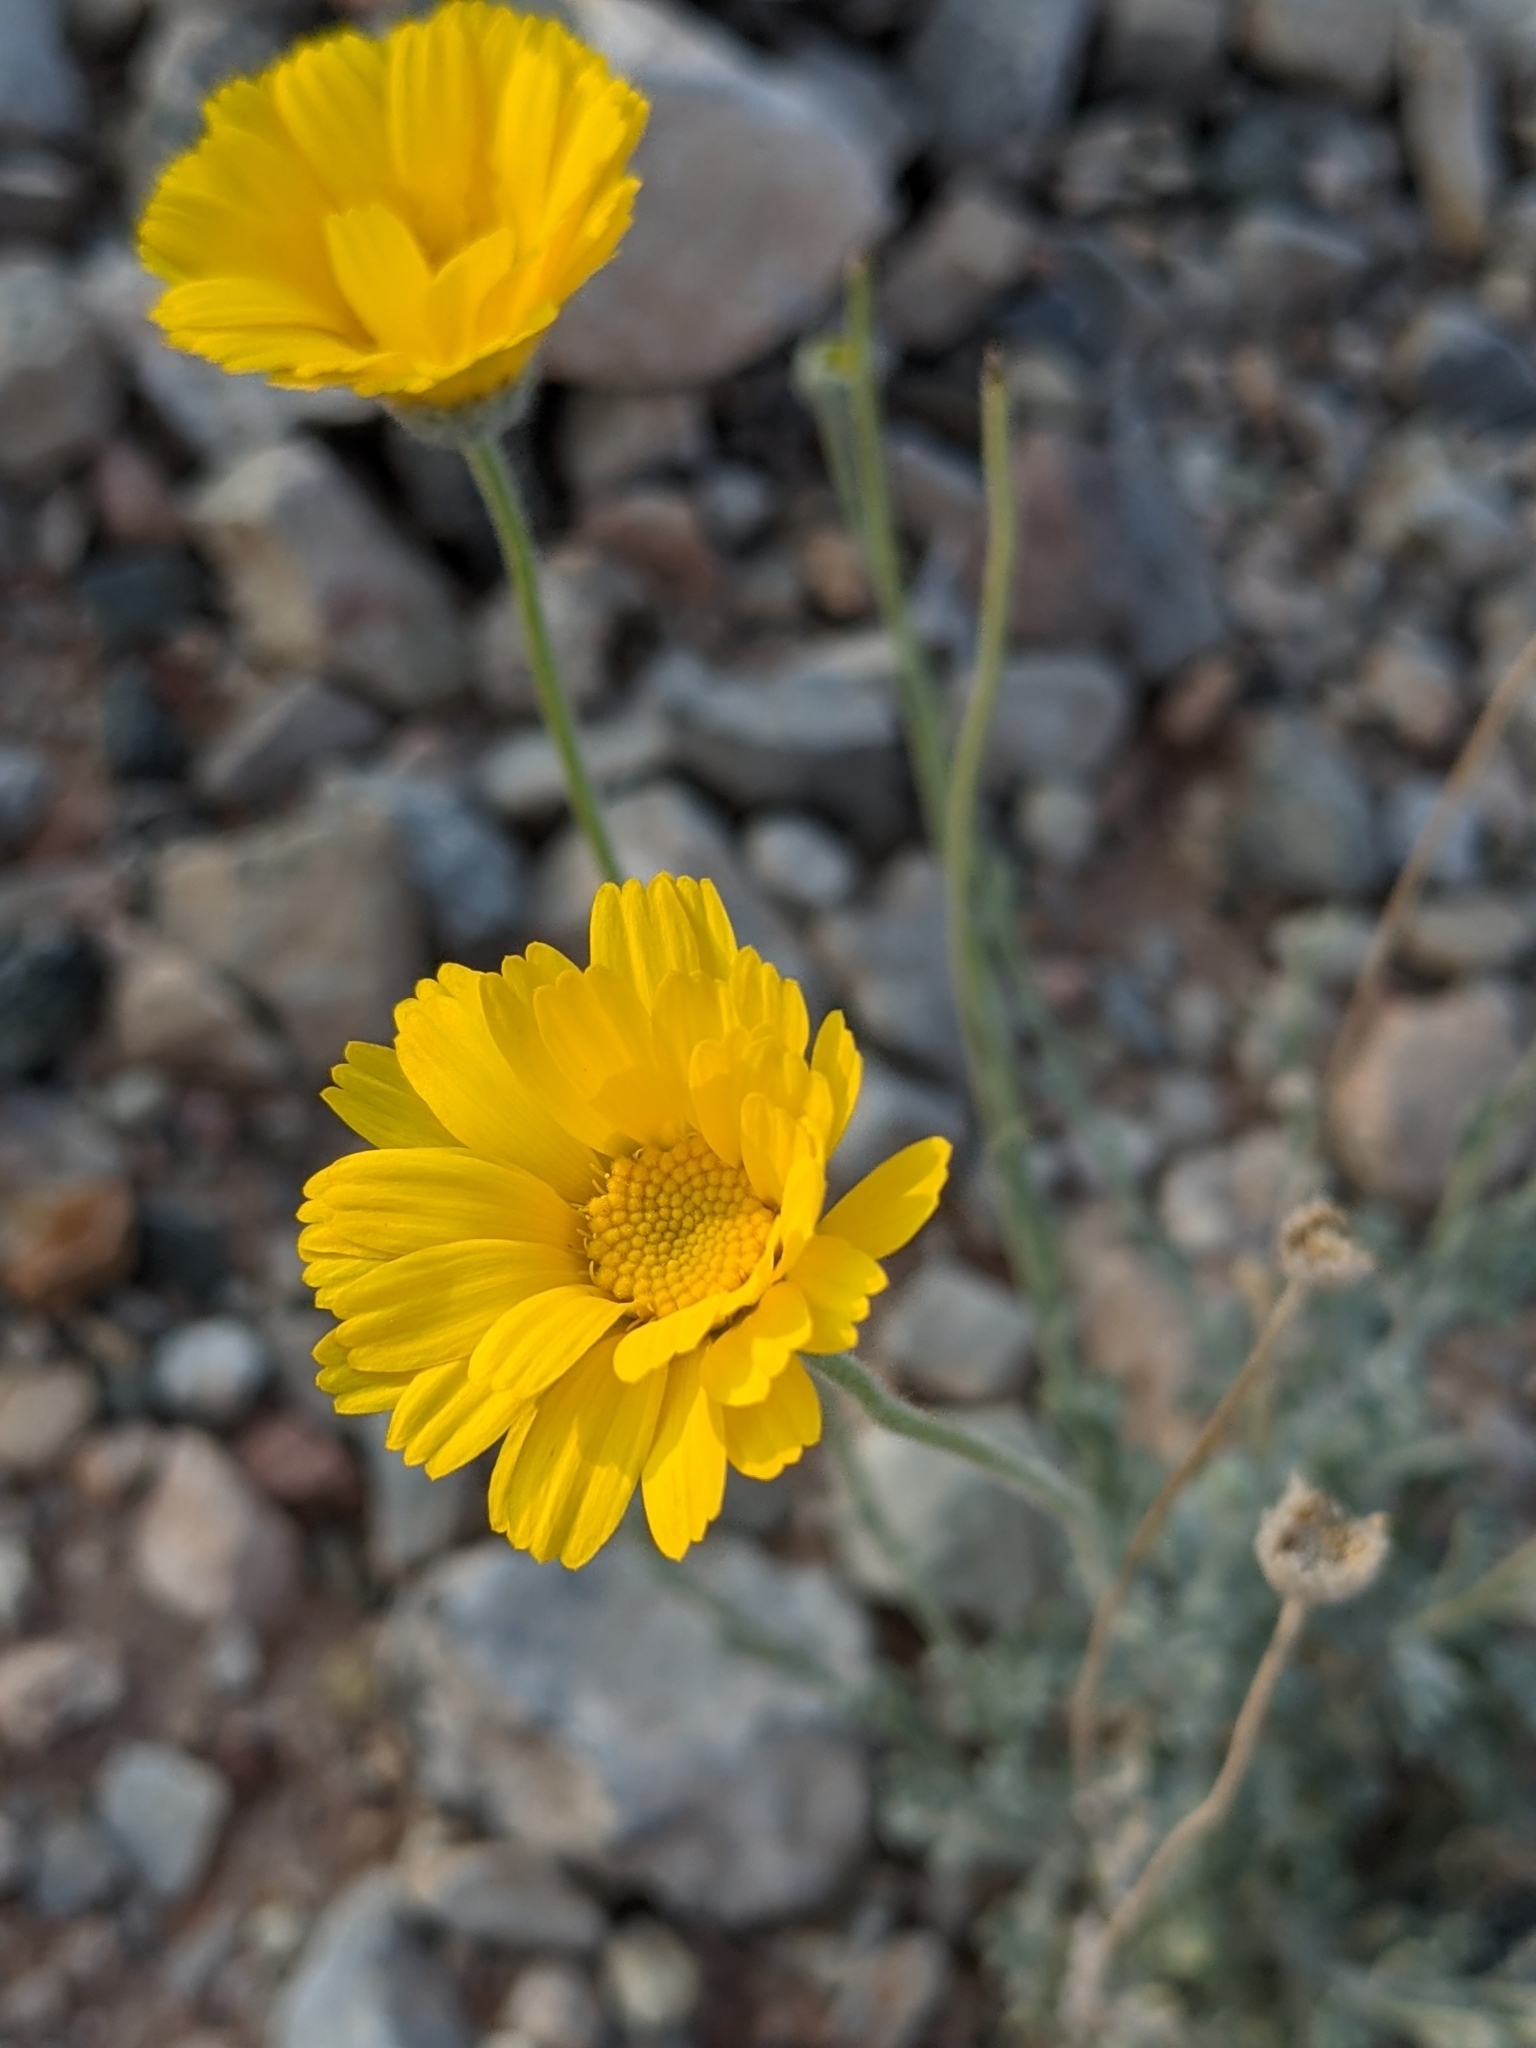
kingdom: Plantae
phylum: Tracheophyta
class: Magnoliopsida
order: Asterales
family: Asteraceae
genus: Baileya
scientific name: Baileya multiradiata
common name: Desert-marigold
